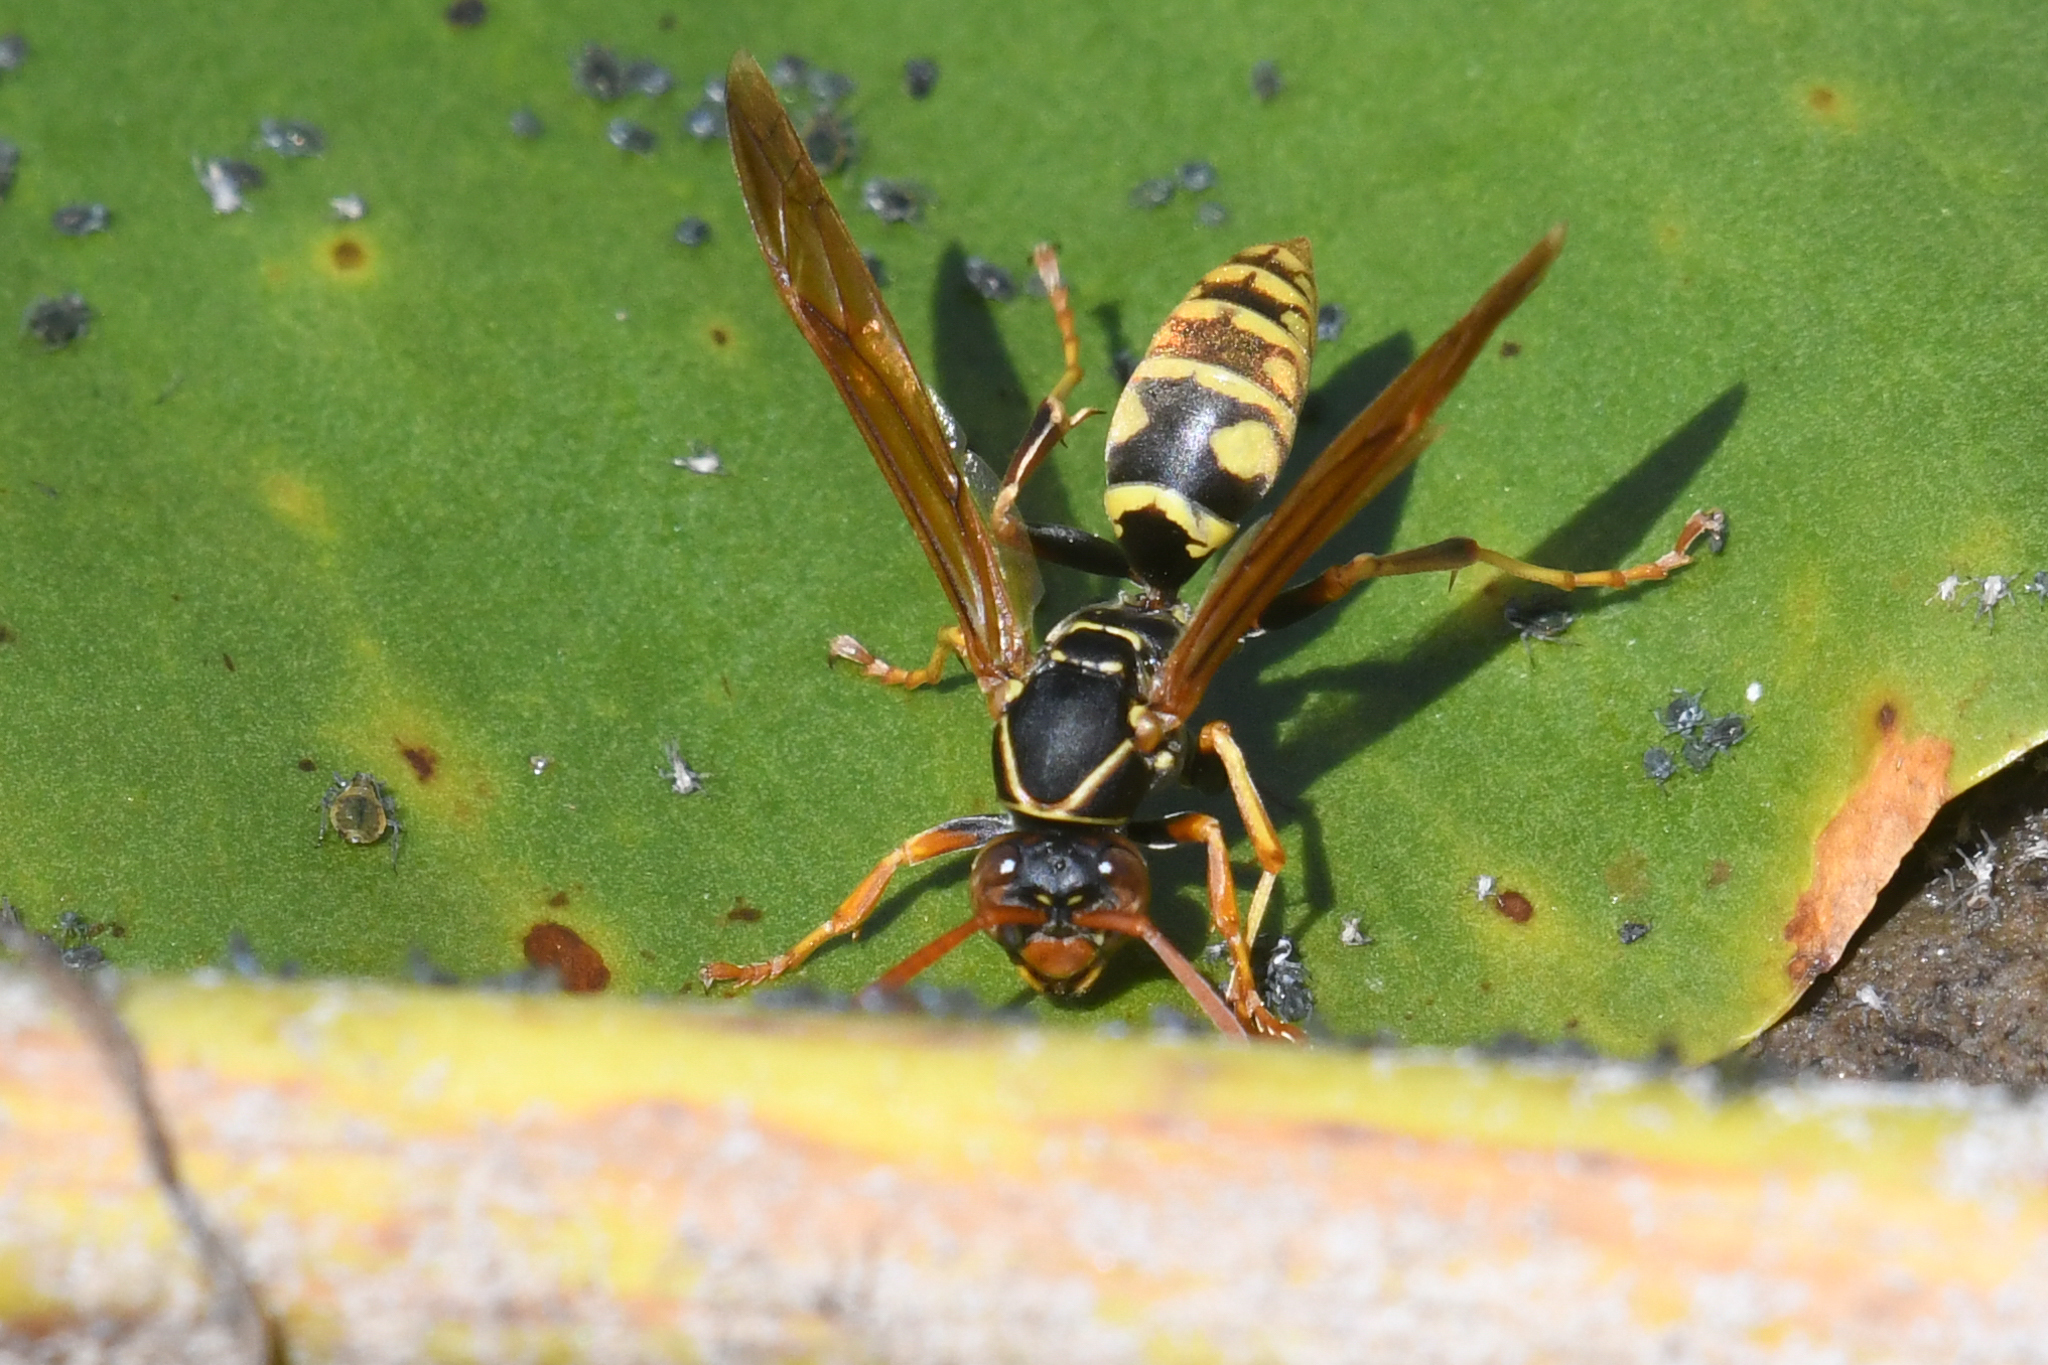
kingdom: Animalia
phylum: Arthropoda
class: Insecta
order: Hymenoptera
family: Eumenidae
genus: Polistes
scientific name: Polistes aurifer
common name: Paper wasp
